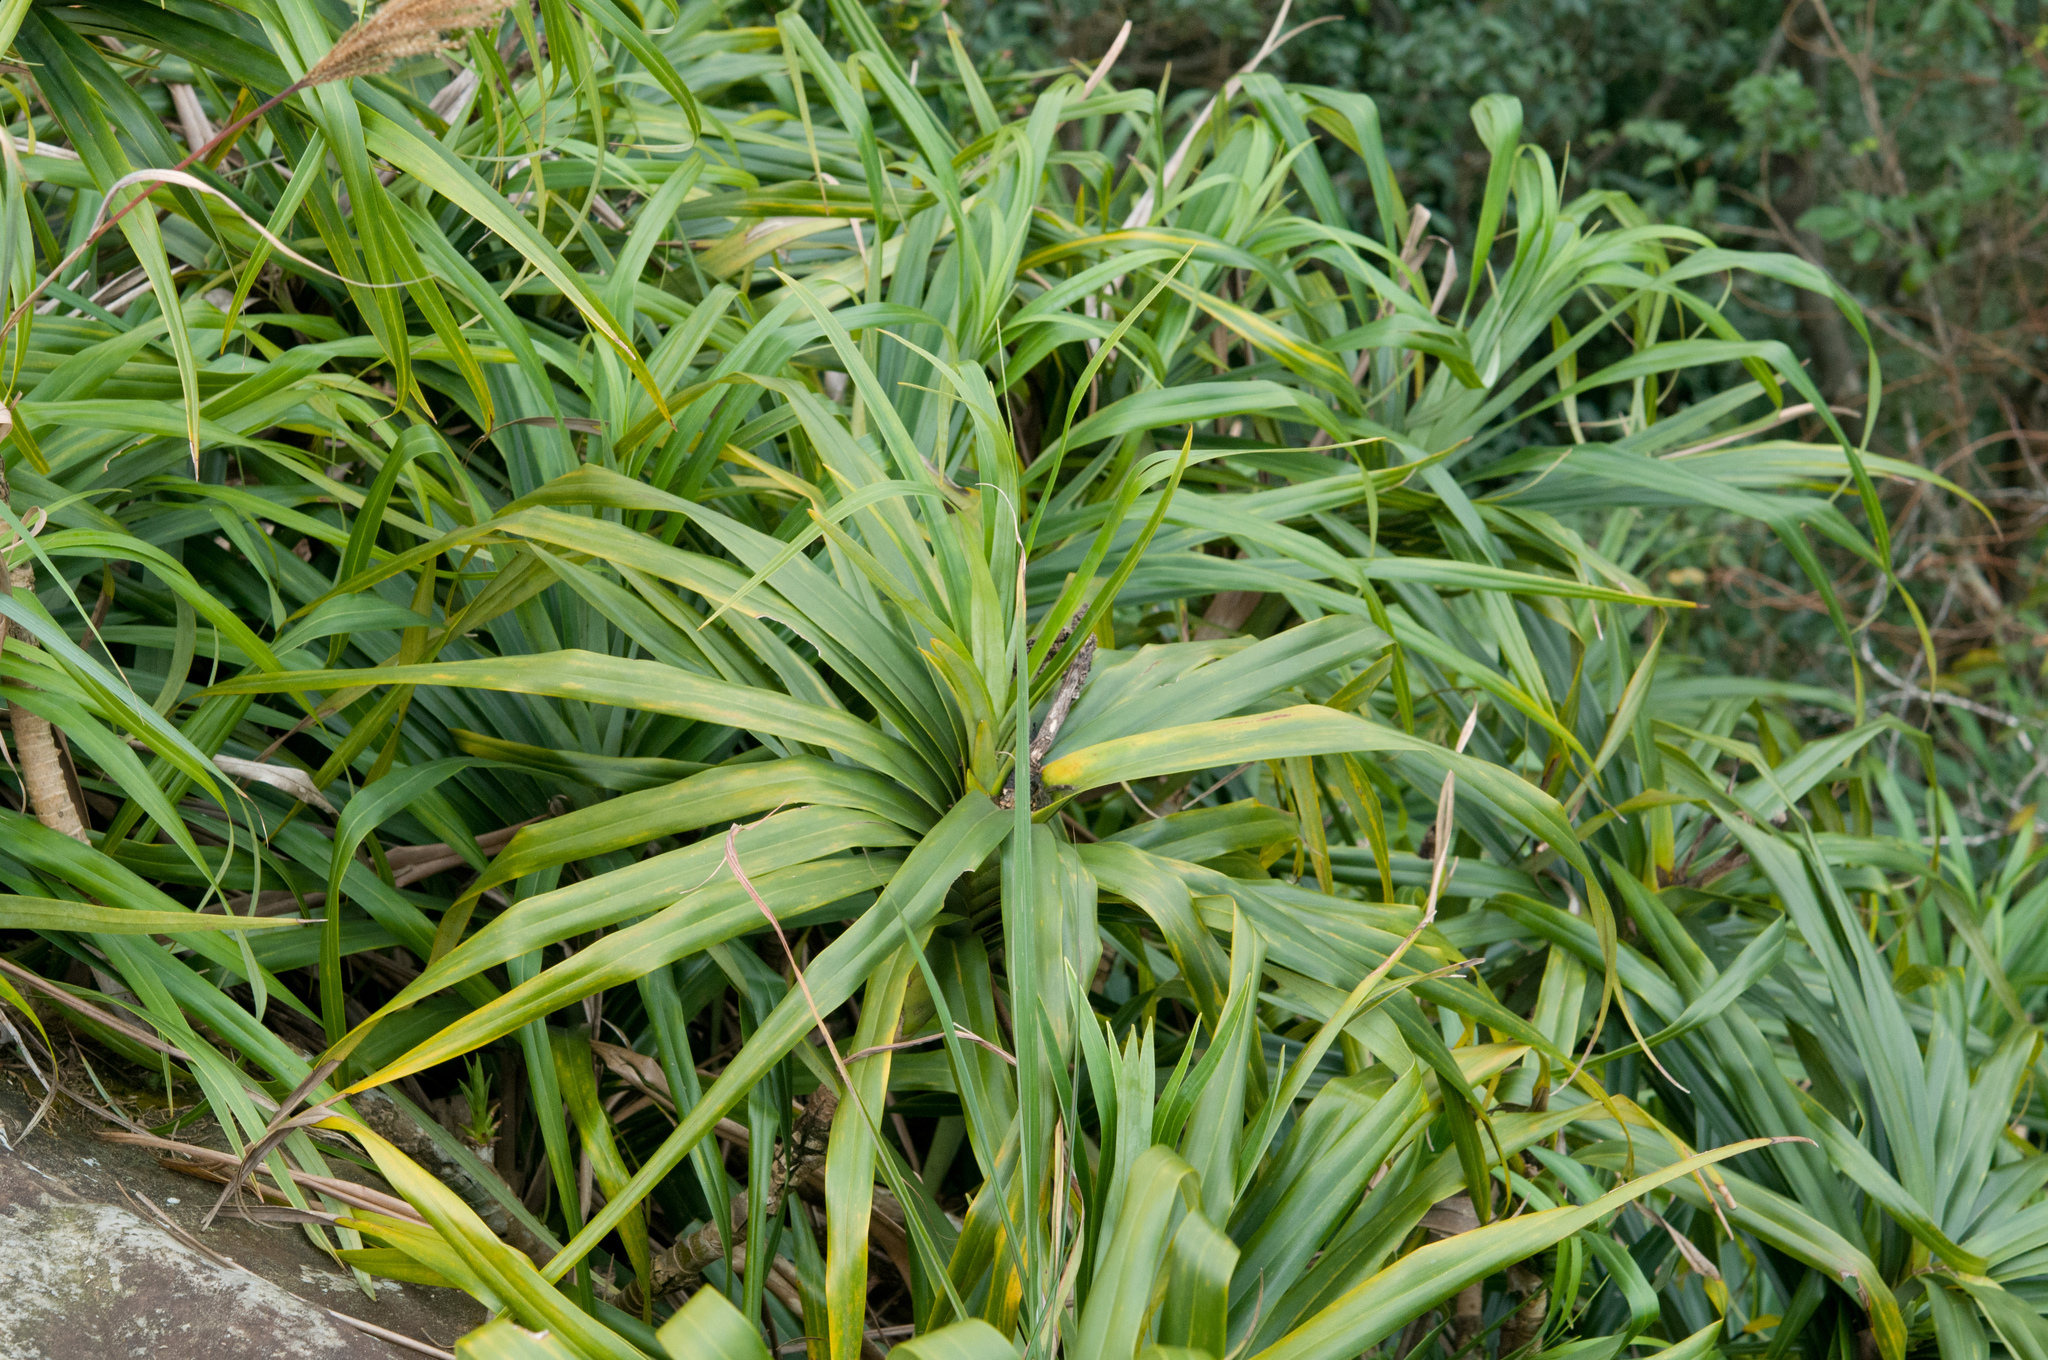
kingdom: Plantae
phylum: Tracheophyta
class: Liliopsida
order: Pandanales
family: Pandanaceae
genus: Freycinetia
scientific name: Freycinetia formosana
